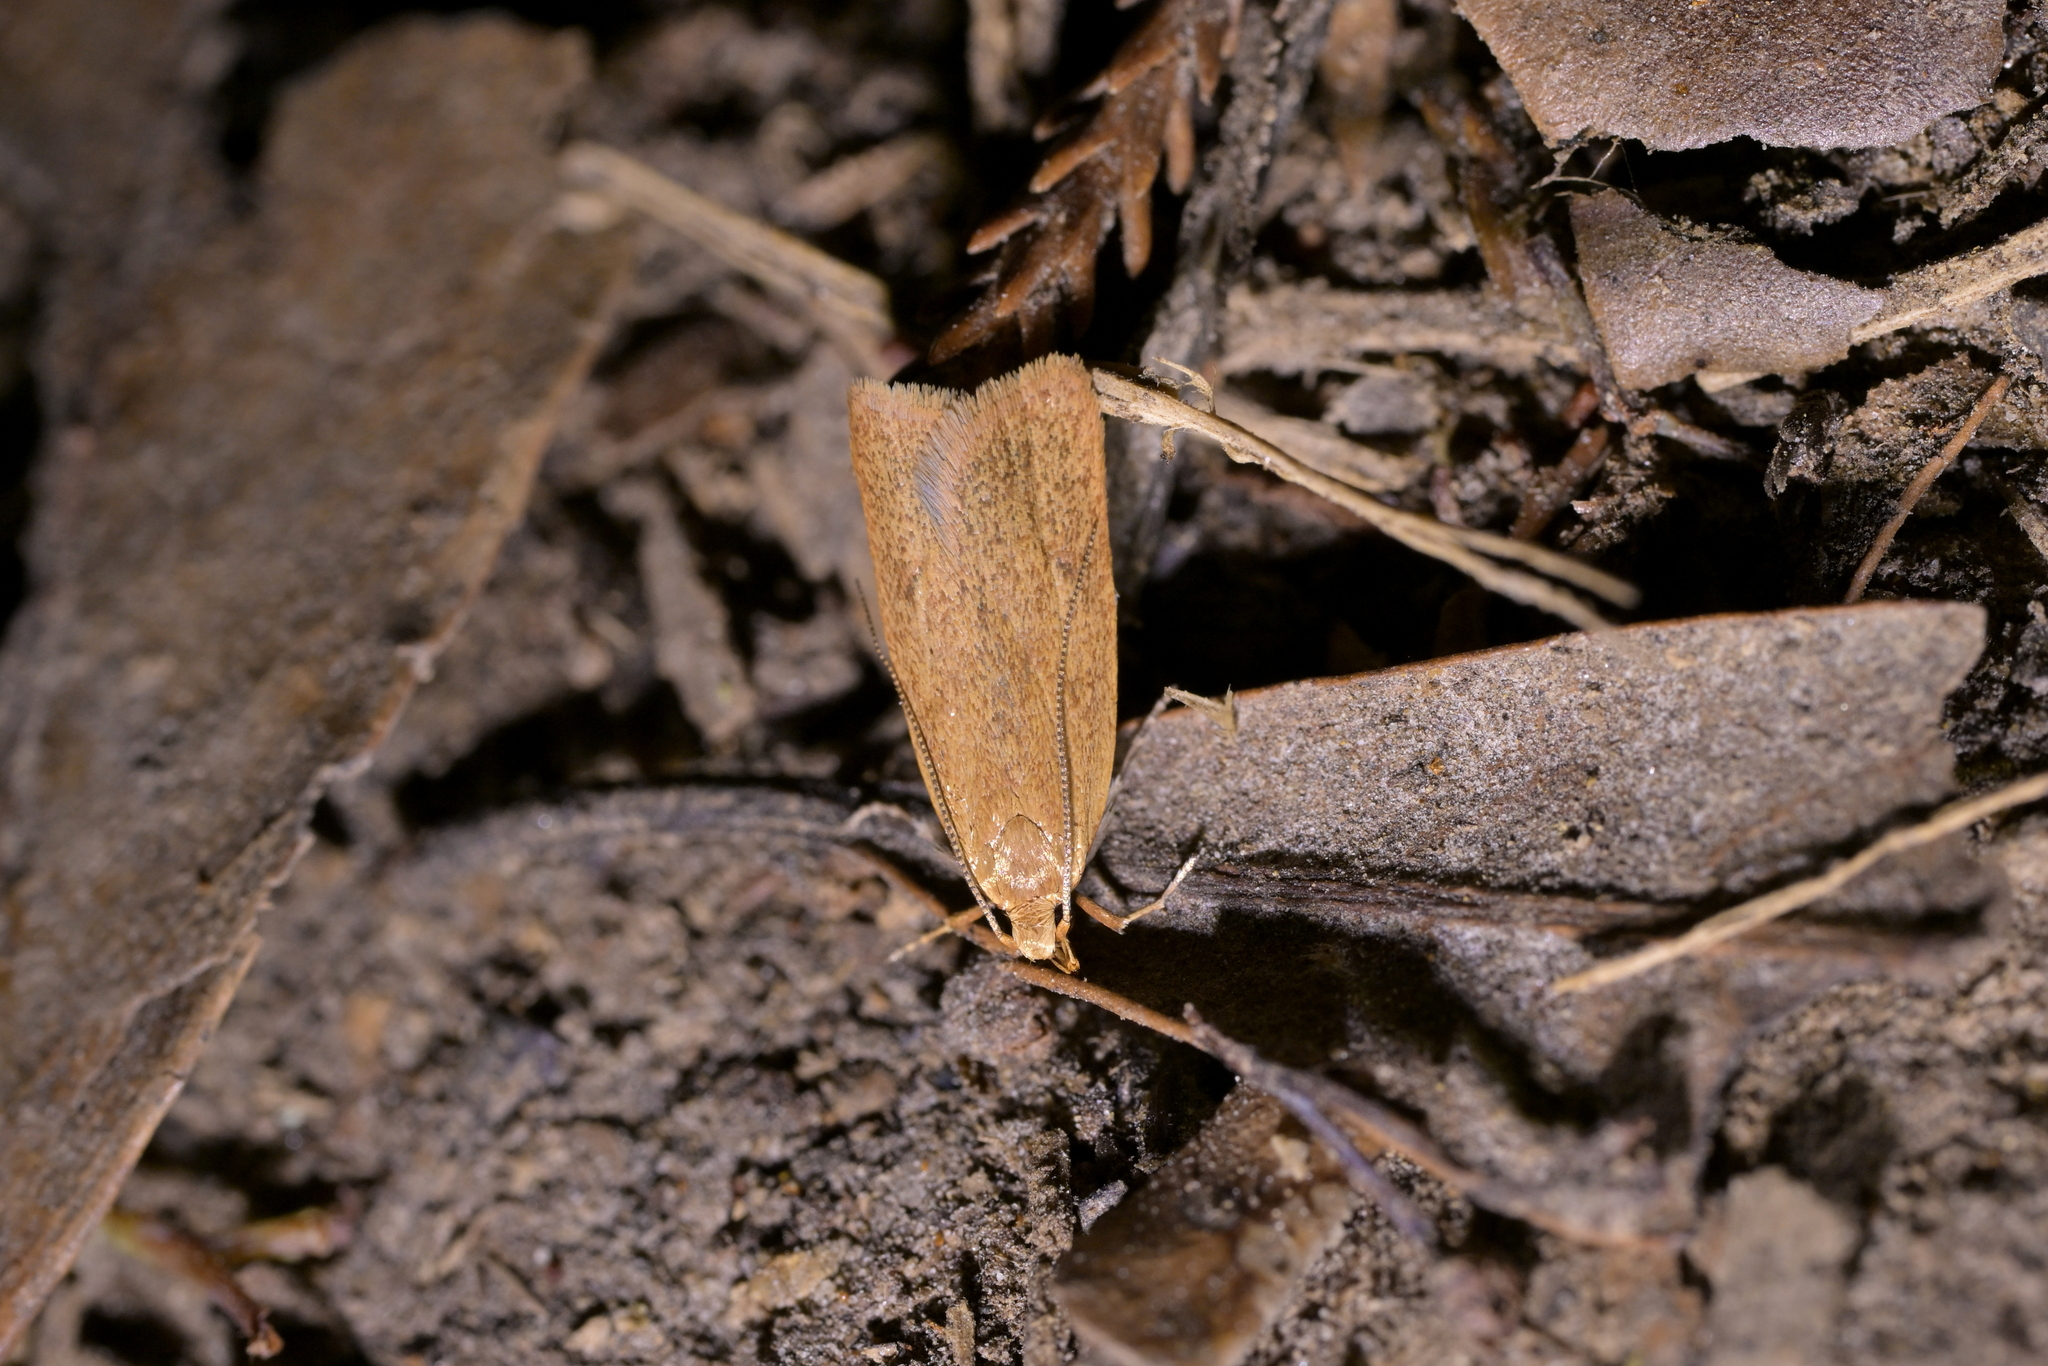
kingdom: Animalia
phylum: Arthropoda
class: Insecta
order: Lepidoptera
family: Oecophoridae
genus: Gymnobathra
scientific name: Gymnobathra sarcoxantha
